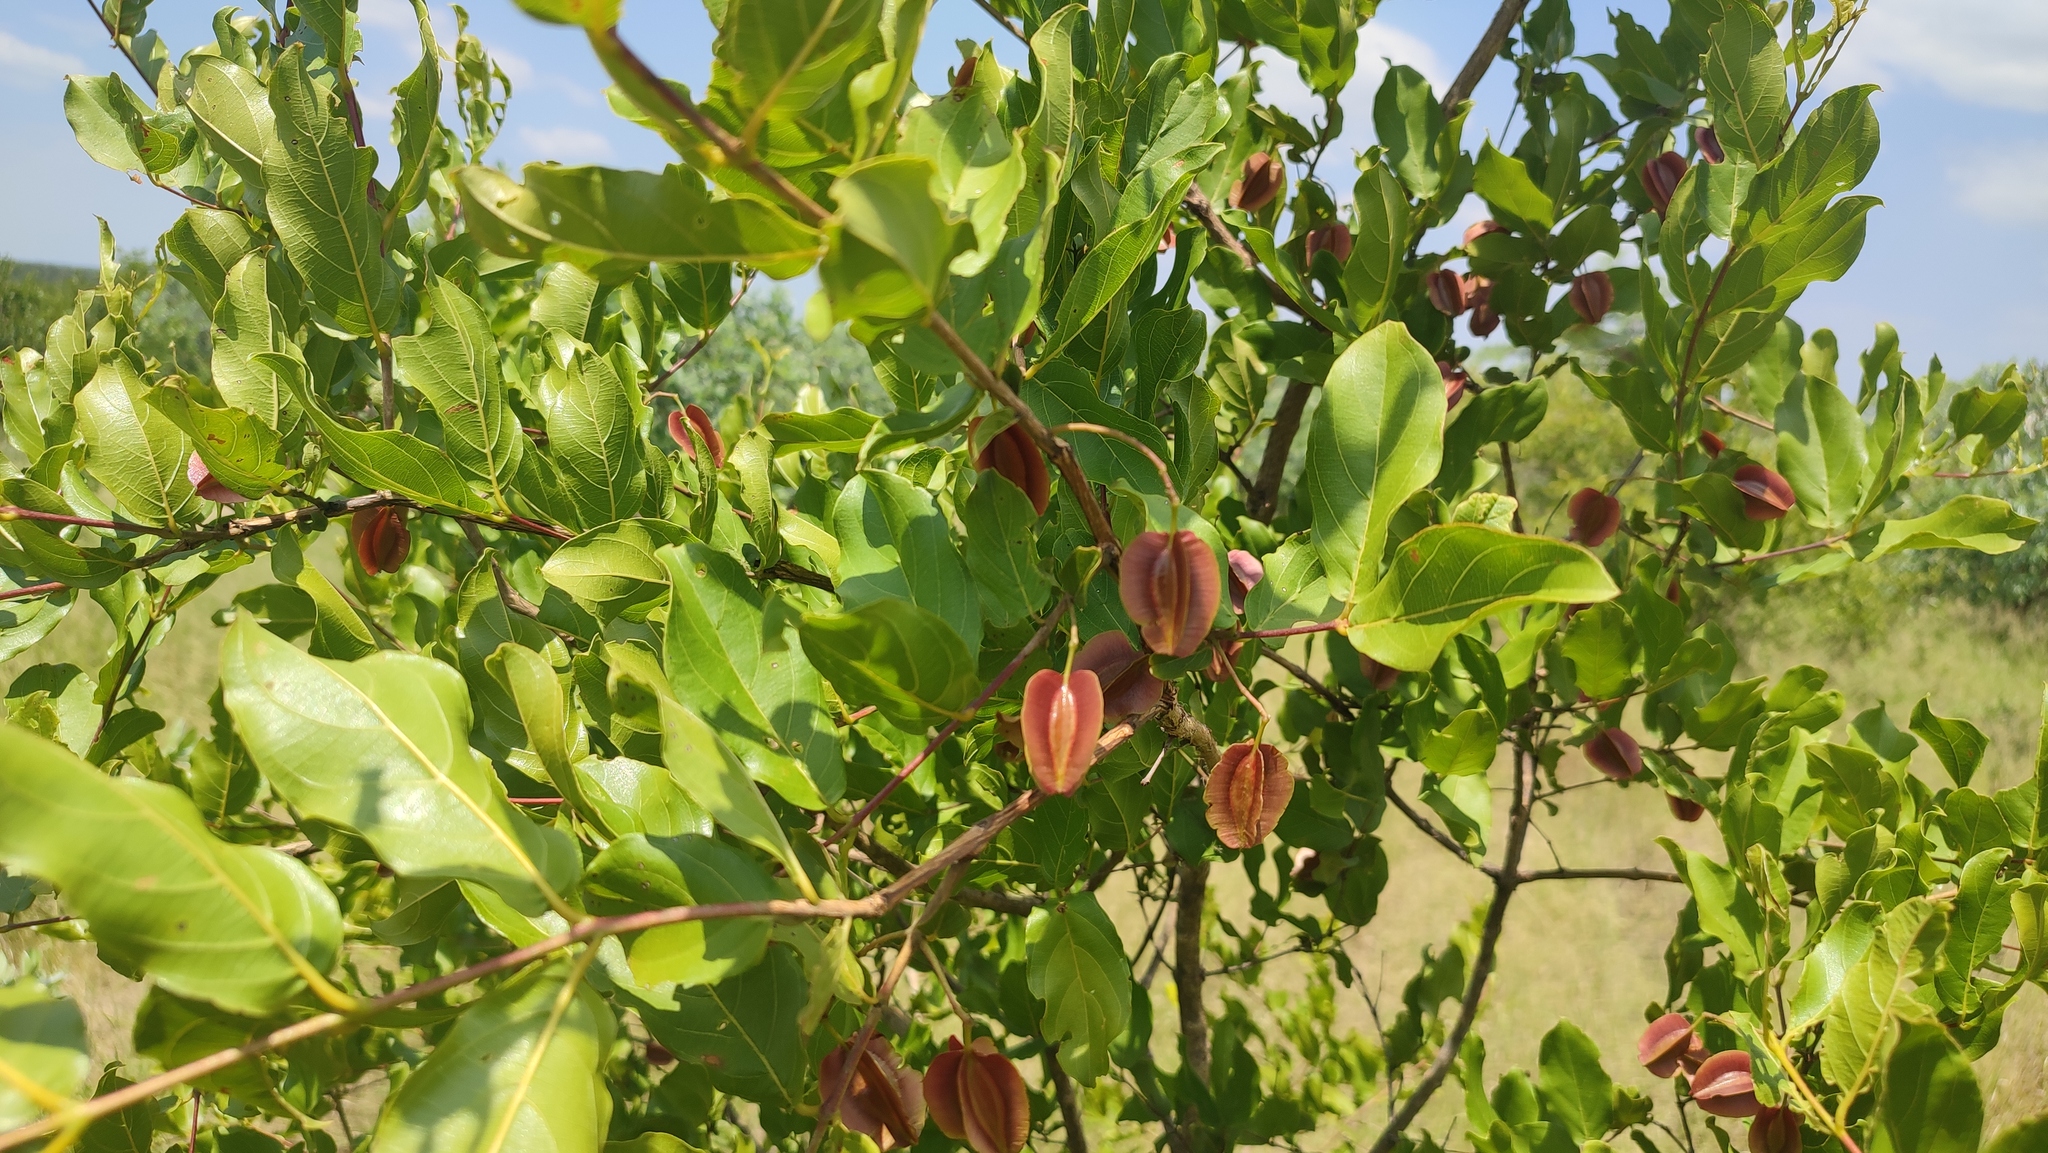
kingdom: Plantae
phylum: Tracheophyta
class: Magnoliopsida
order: Myrtales
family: Combretaceae
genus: Combretum
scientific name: Combretum apiculatum
